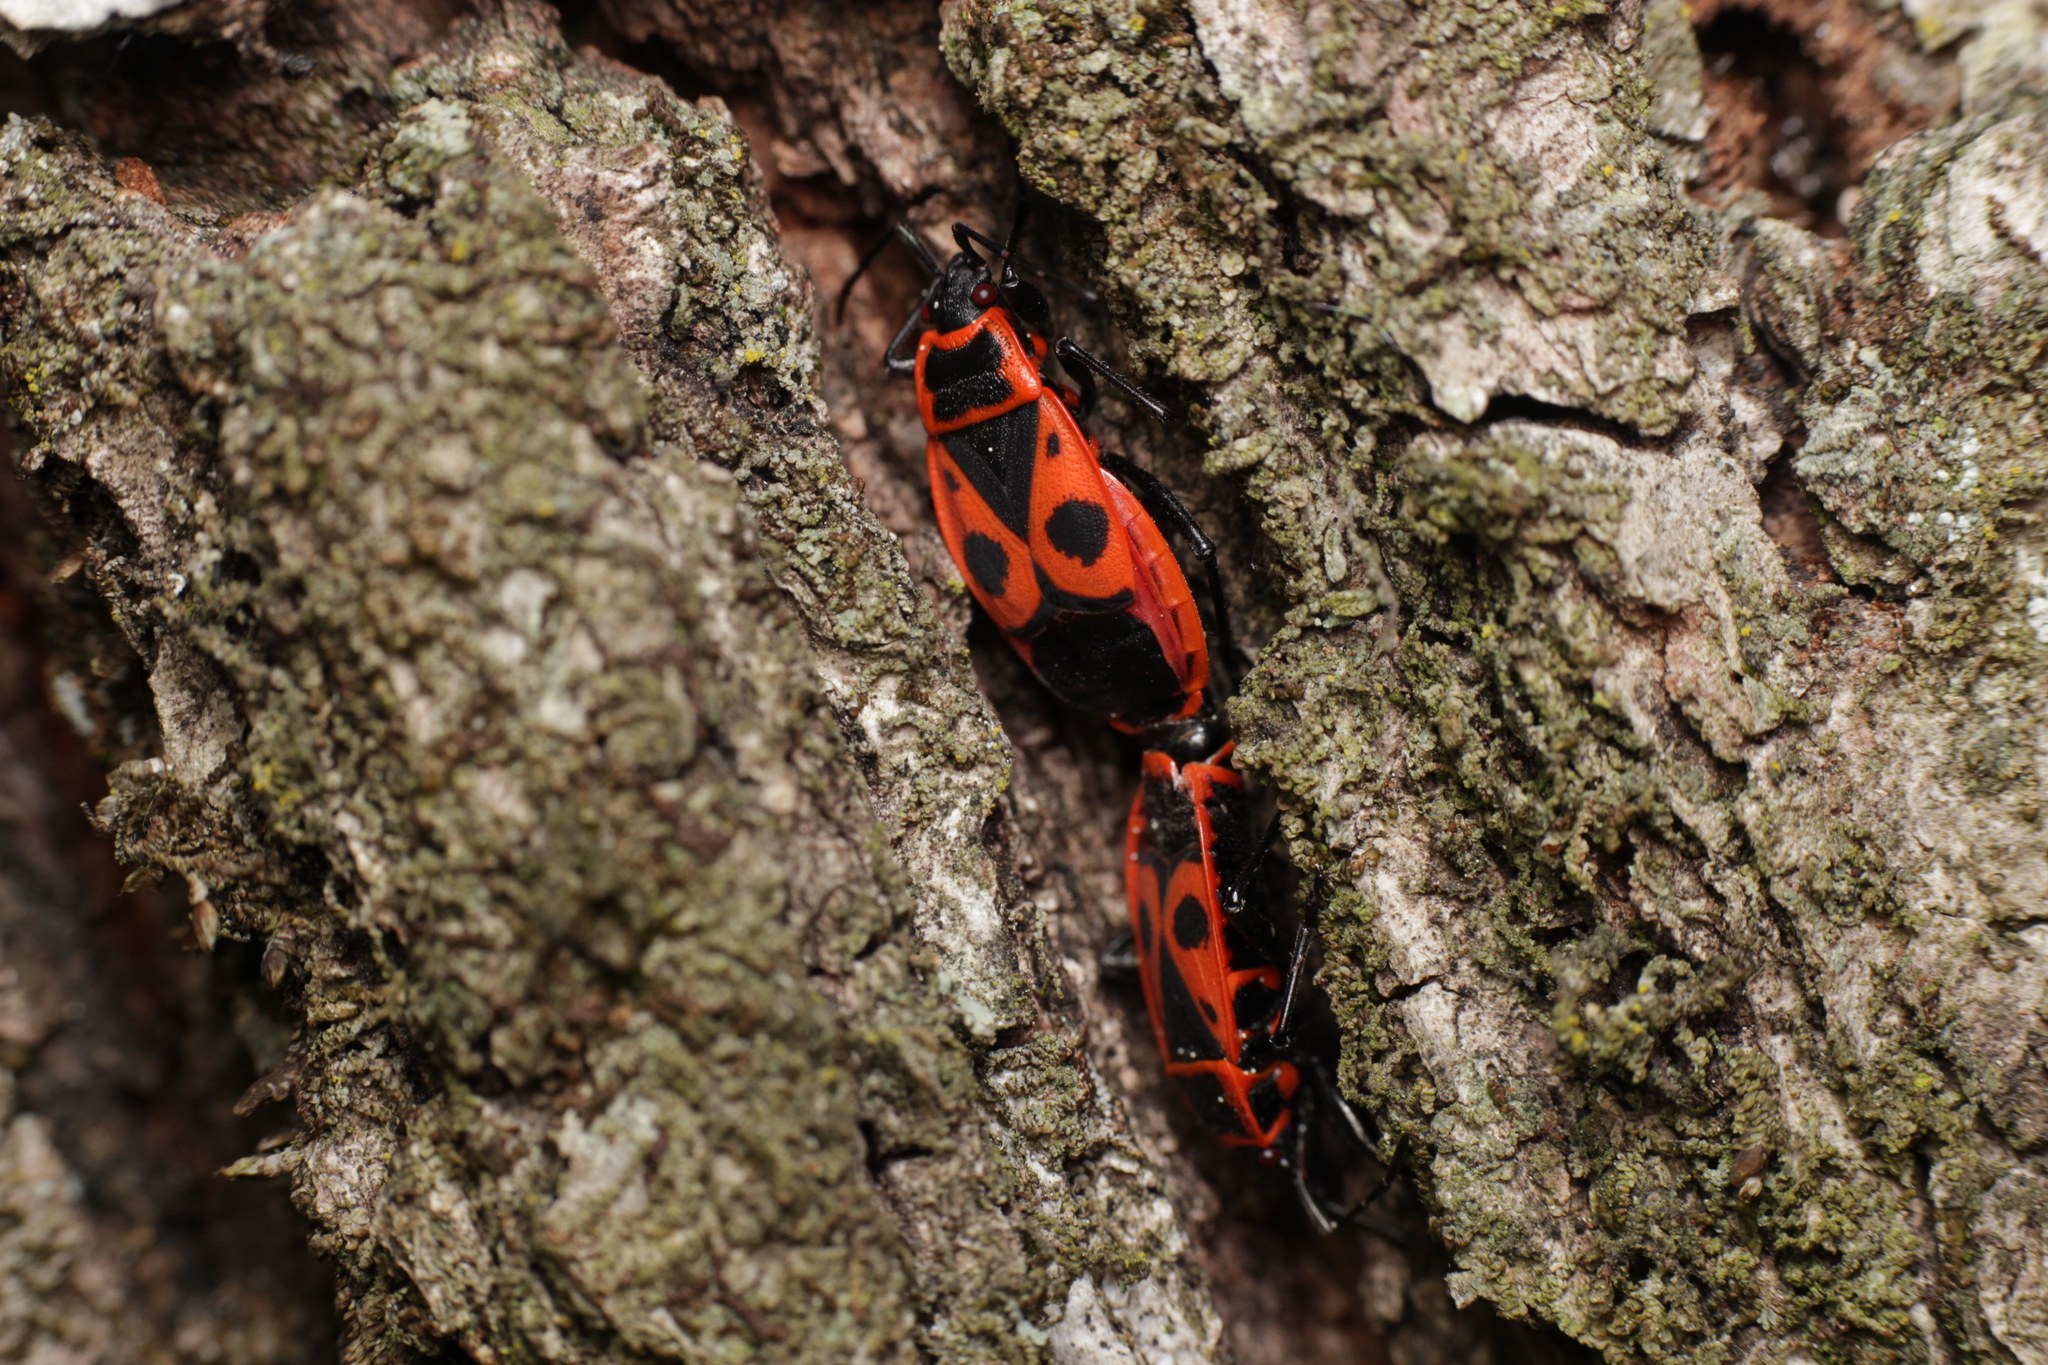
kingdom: Animalia
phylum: Arthropoda
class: Insecta
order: Hemiptera
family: Pyrrhocoridae
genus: Pyrrhocoris
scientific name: Pyrrhocoris apterus
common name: Firebug
